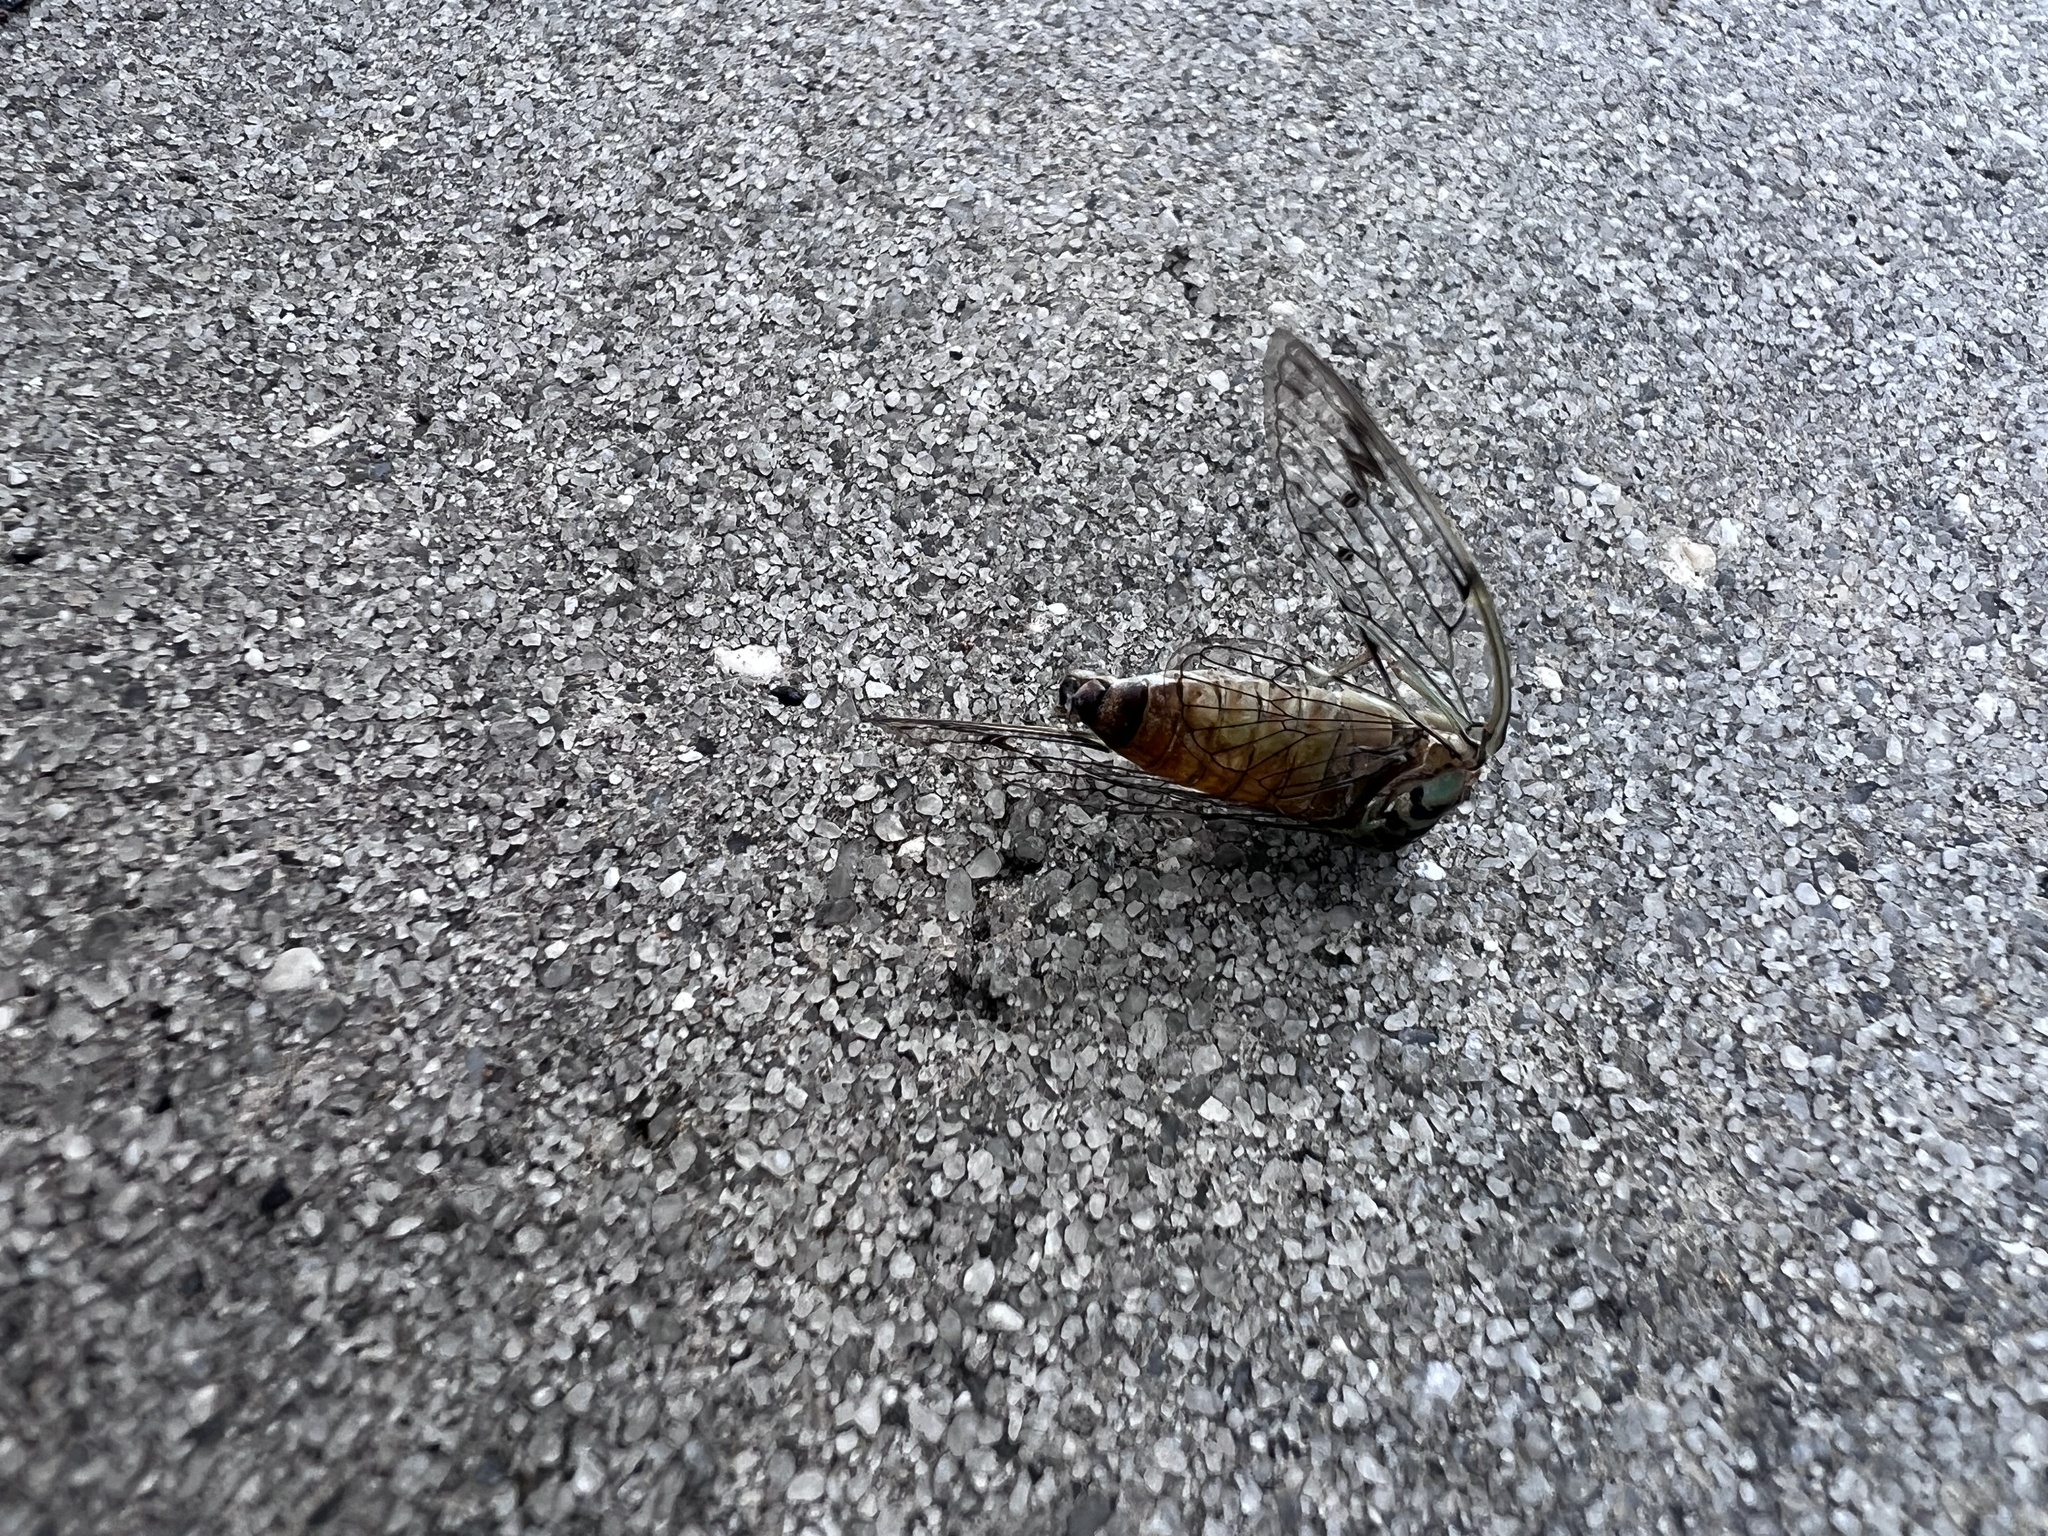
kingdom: Animalia
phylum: Arthropoda
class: Insecta
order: Hemiptera
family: Cicadidae
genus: Neocicada
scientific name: Neocicada hieroglyphica
